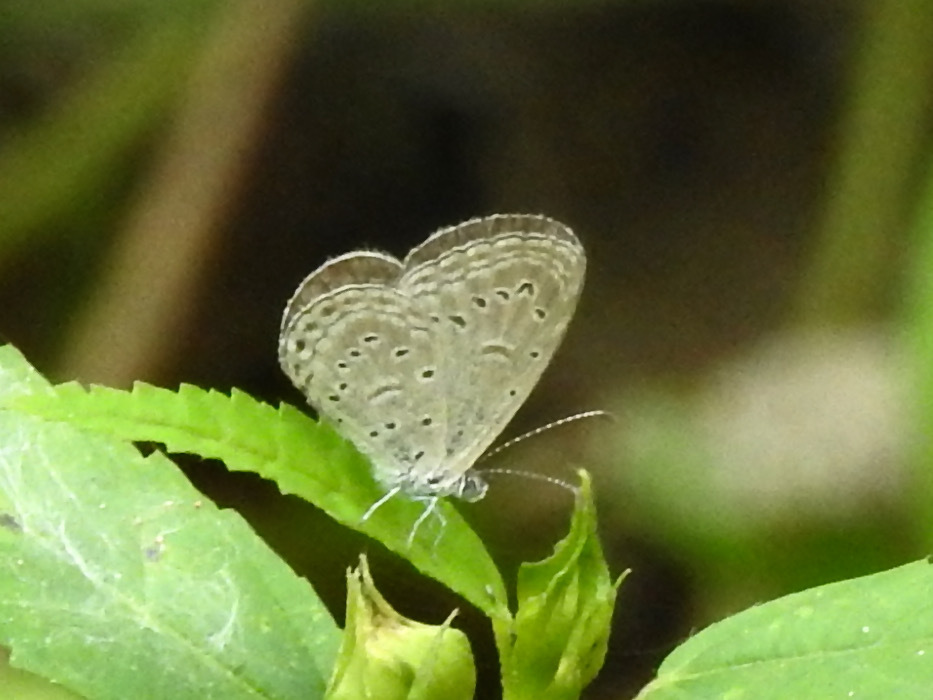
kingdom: Animalia
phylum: Arthropoda
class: Insecta
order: Lepidoptera
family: Lycaenidae
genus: Zizula
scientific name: Zizula hylax
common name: Gaika blue
